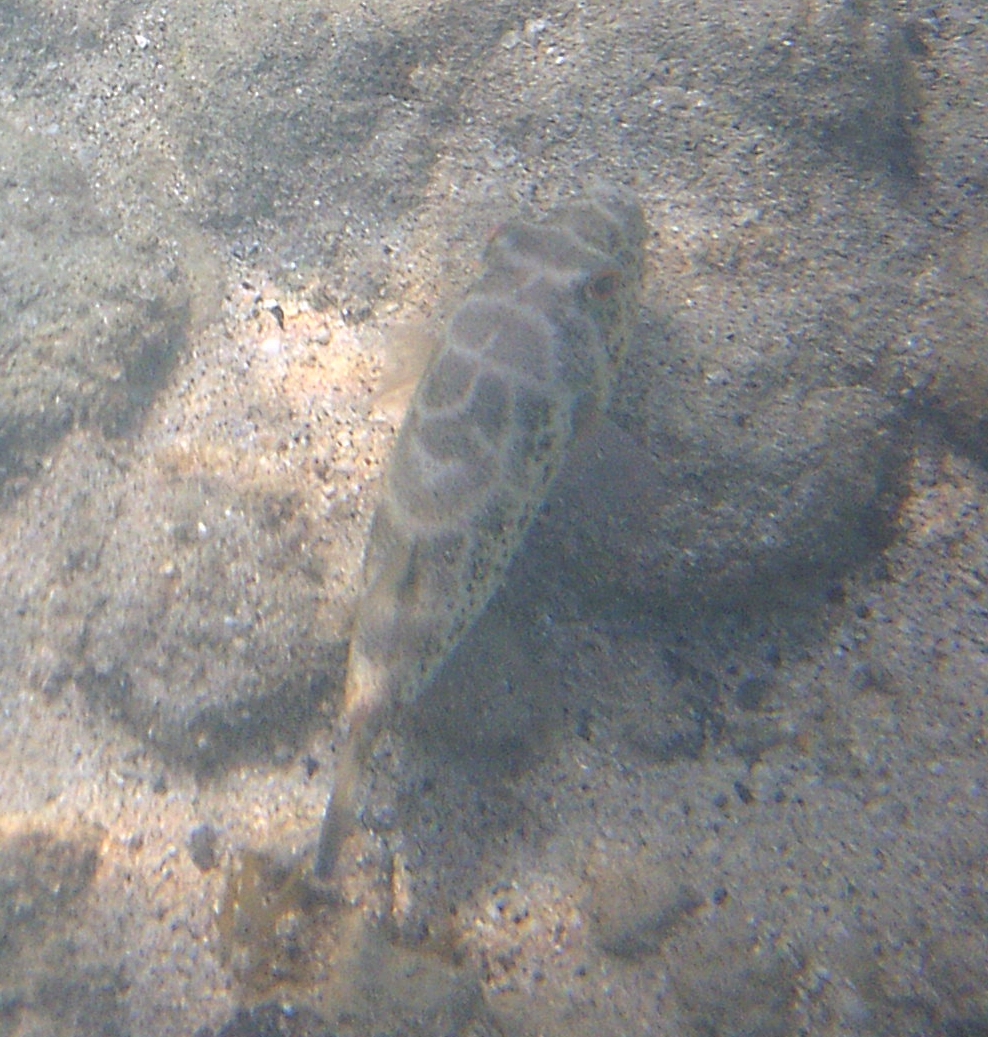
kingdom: Animalia
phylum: Chordata
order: Tetraodontiformes
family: Tetraodontidae
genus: Sphoeroides
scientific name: Sphoeroides testudineus
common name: Checkered puffer
